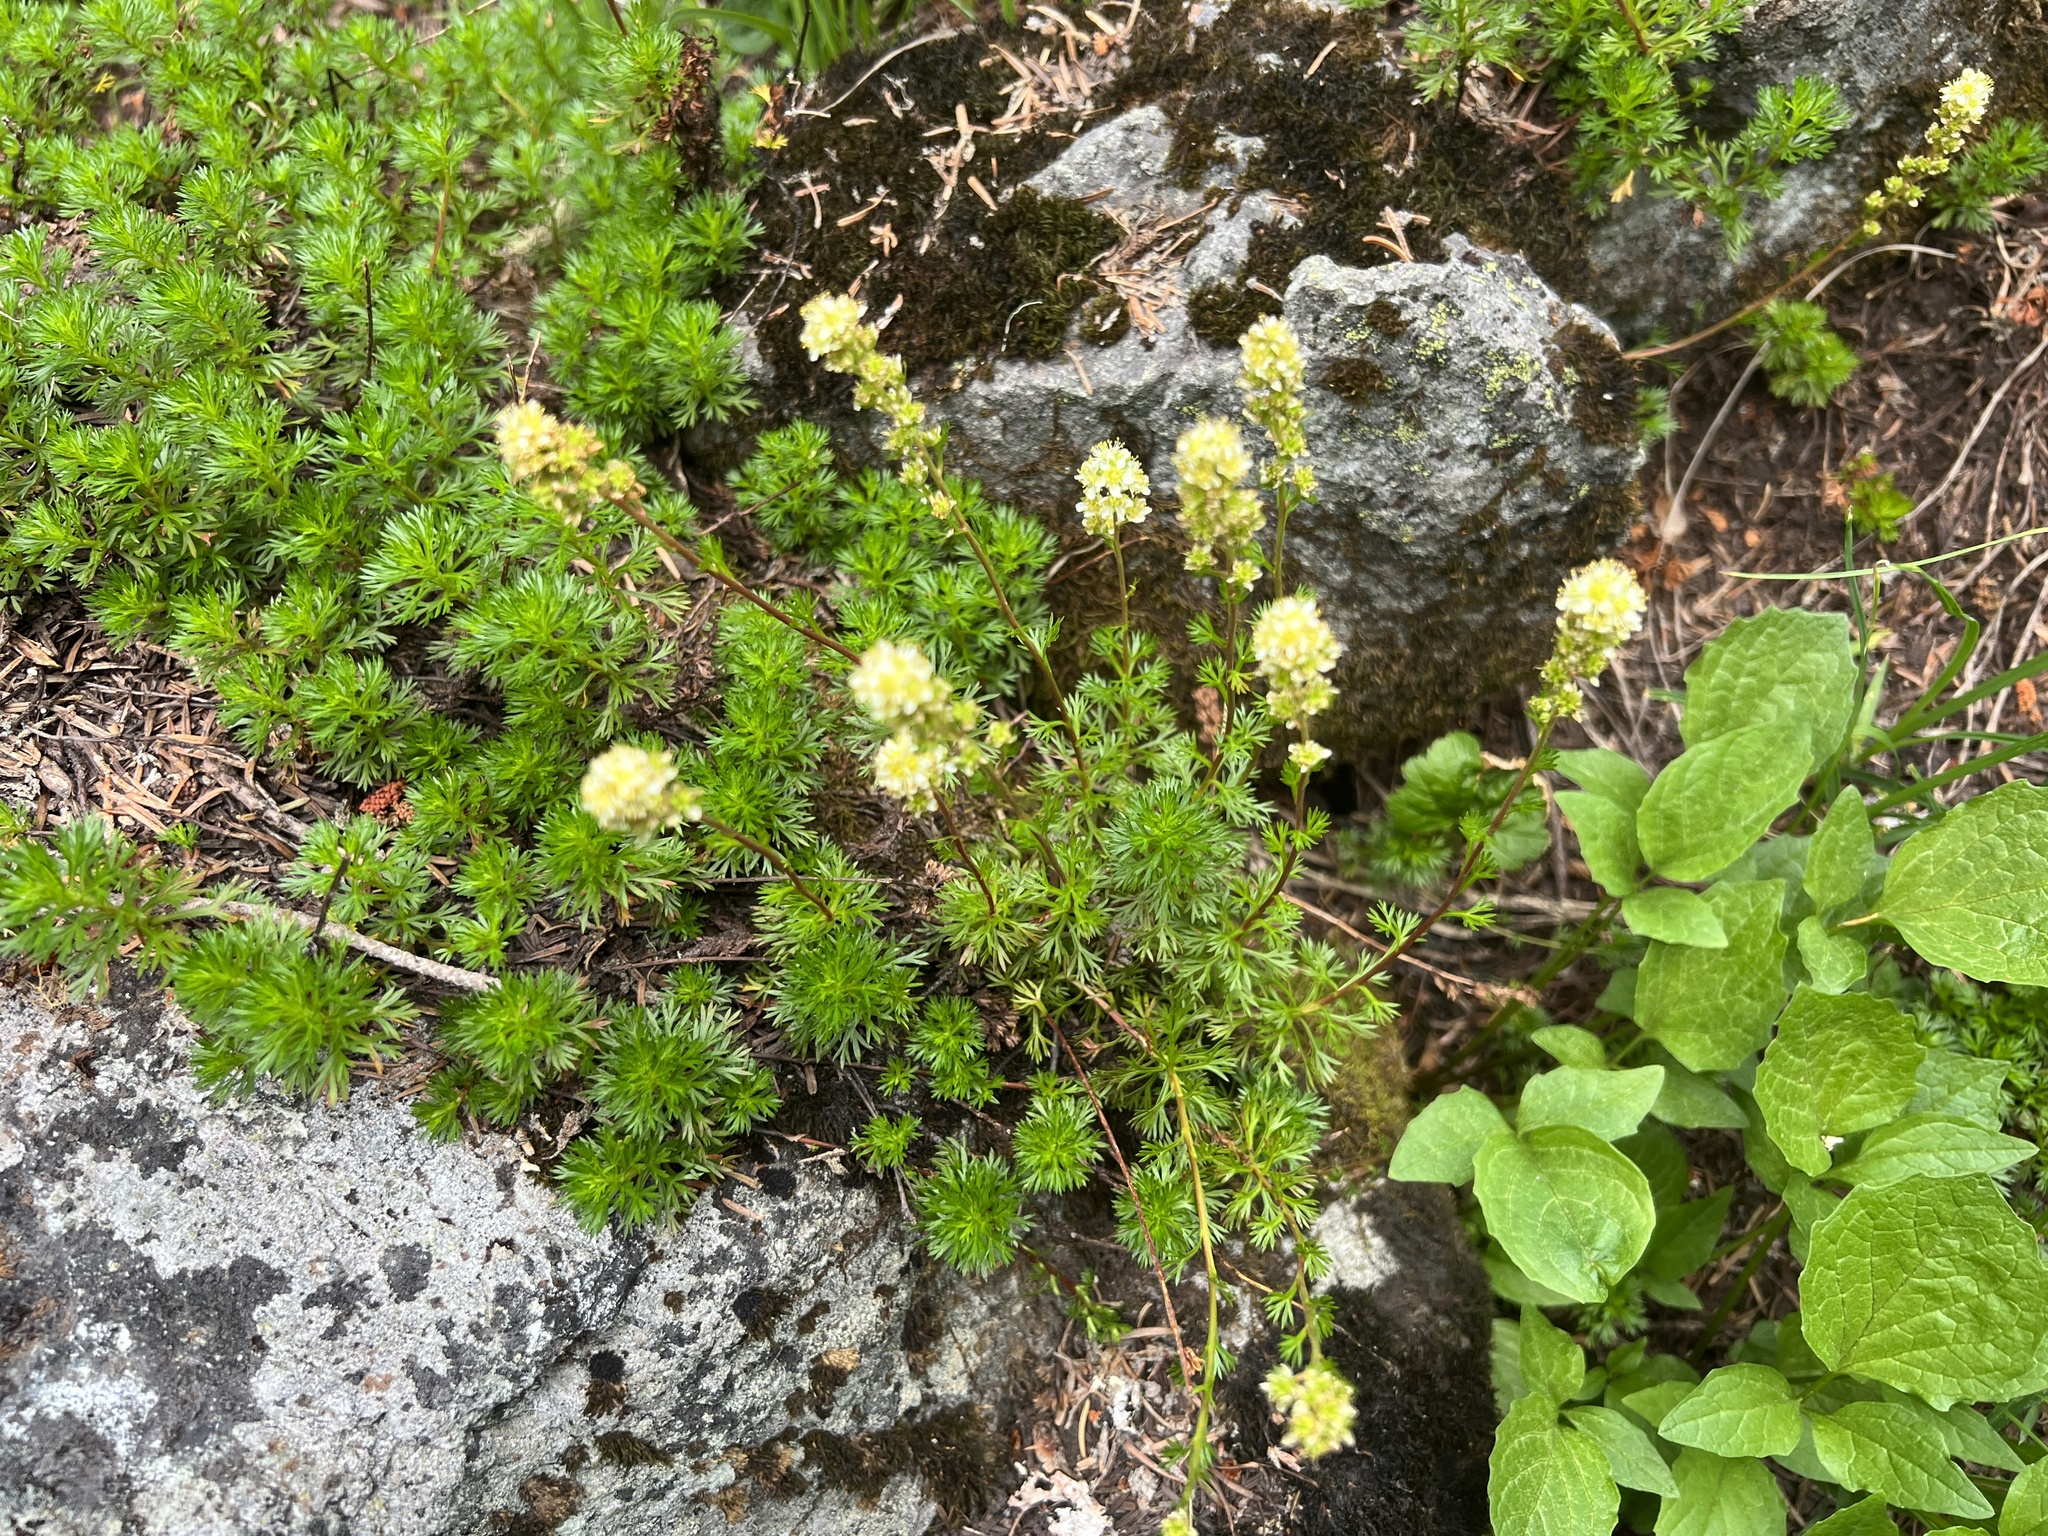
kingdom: Plantae
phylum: Tracheophyta
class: Magnoliopsida
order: Rosales
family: Rosaceae
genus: Luetkea
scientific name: Luetkea pectinata
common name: Partridgefoot
